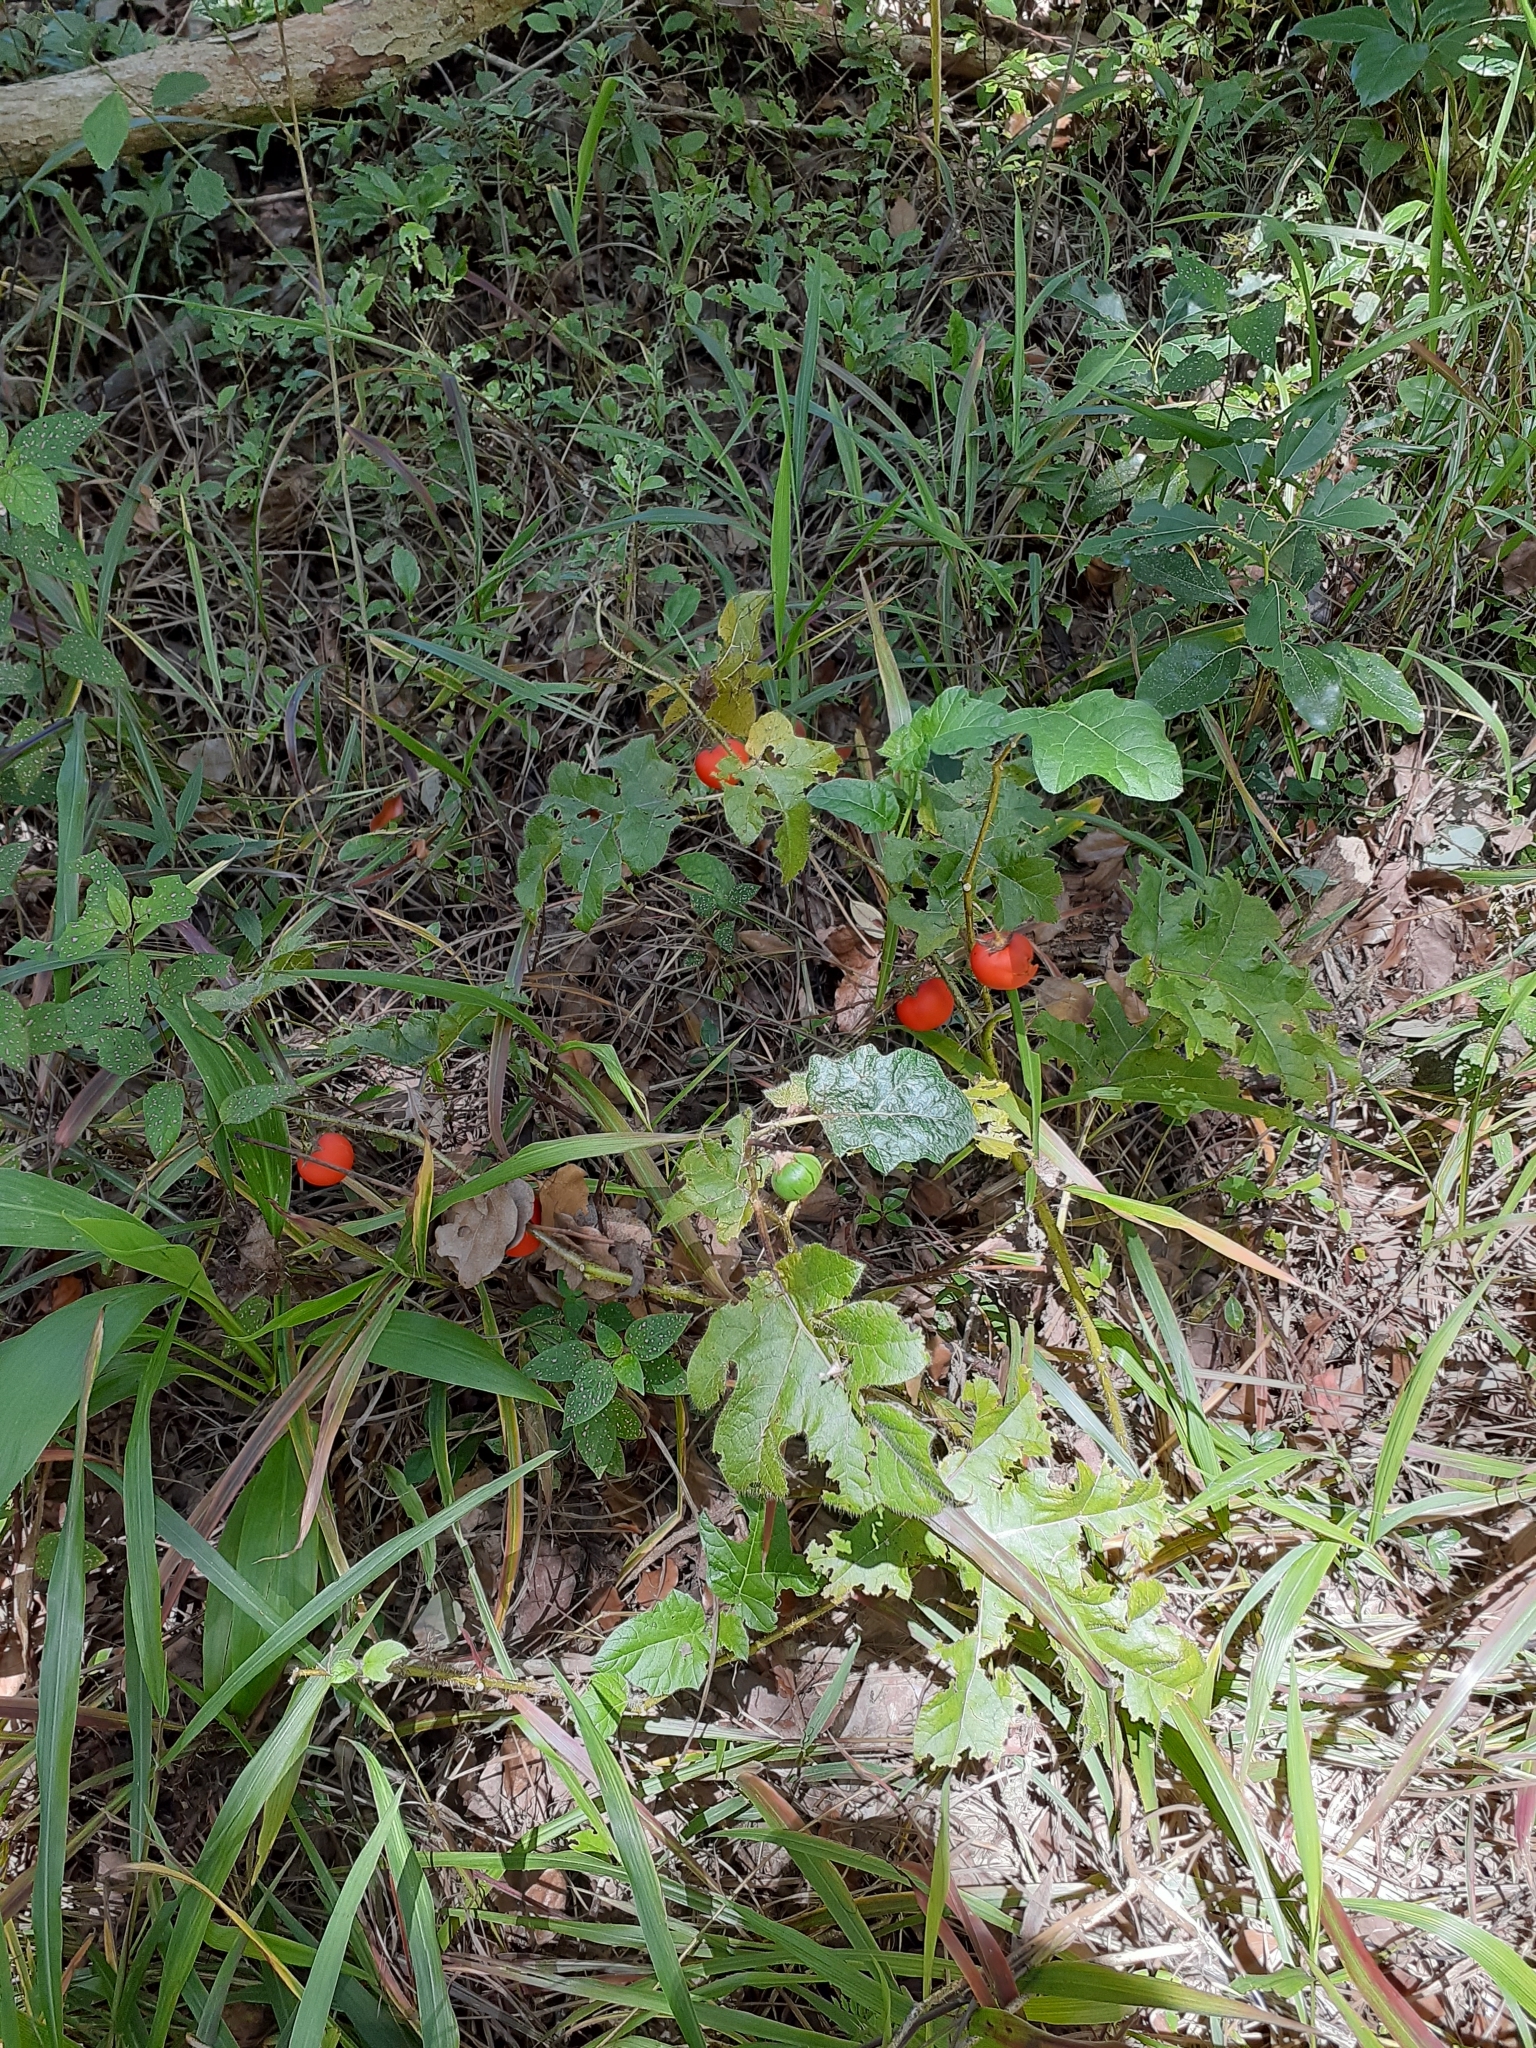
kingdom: Plantae
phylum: Tracheophyta
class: Magnoliopsida
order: Solanales
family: Solanaceae
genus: Solanum
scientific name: Solanum capsicoides
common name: Cockroach berry
